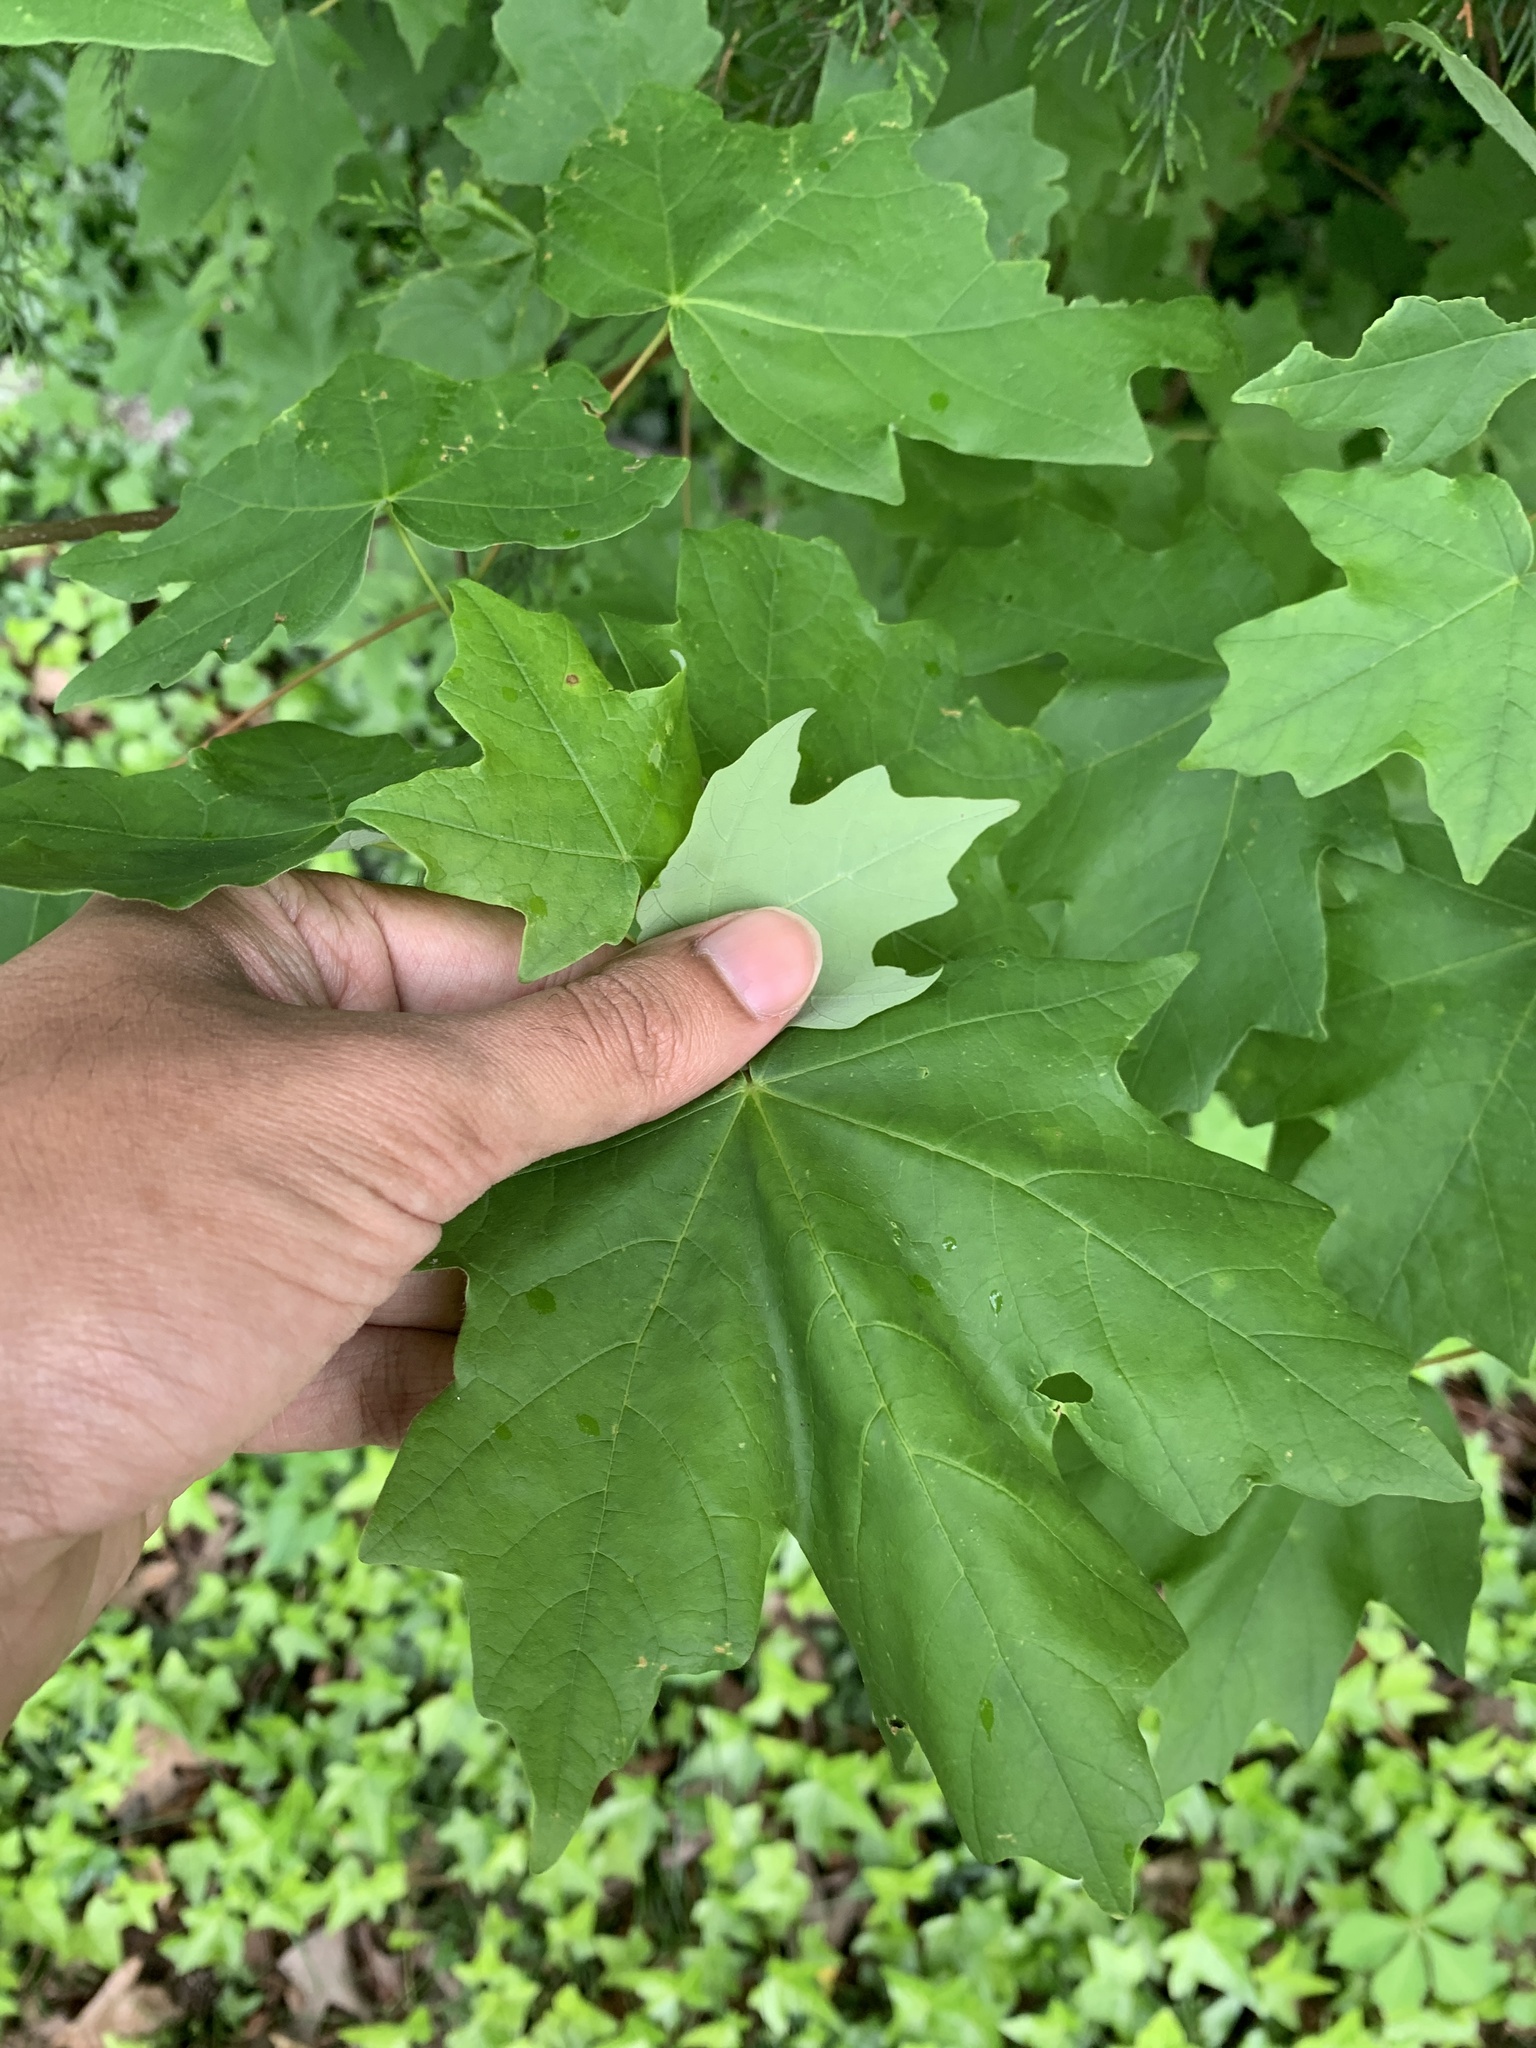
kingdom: Plantae
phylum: Tracheophyta
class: Magnoliopsida
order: Sapindales
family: Sapindaceae
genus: Acer
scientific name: Acer floridanum
